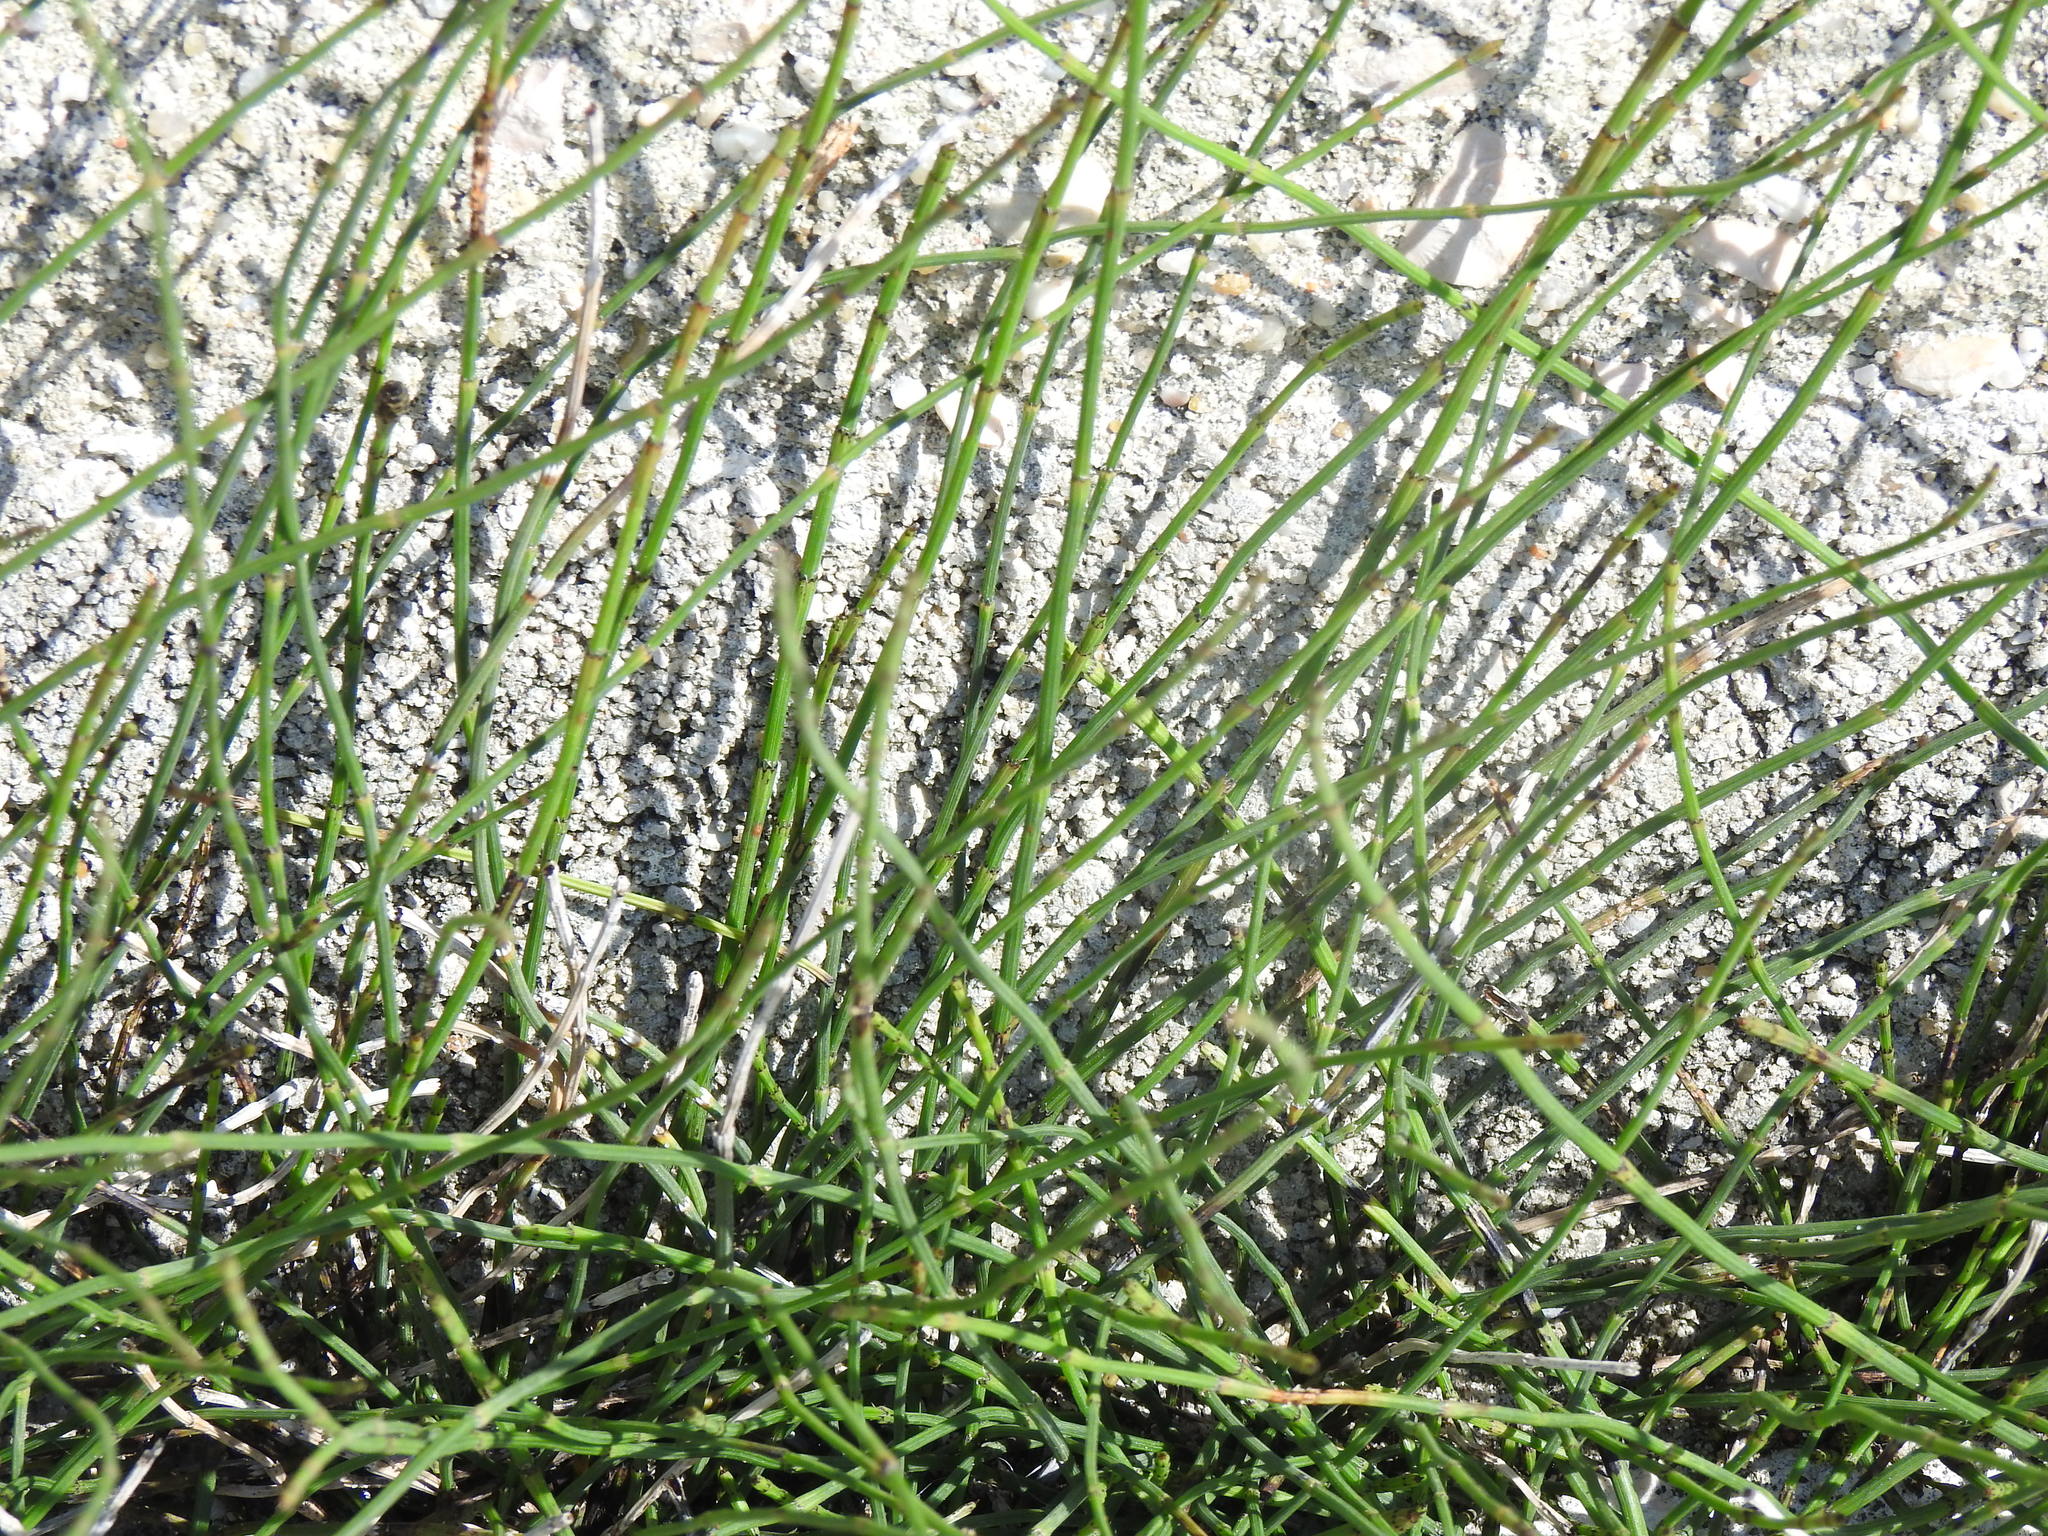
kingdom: Plantae
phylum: Tracheophyta
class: Polypodiopsida
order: Equisetales
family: Equisetaceae
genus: Equisetum
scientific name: Equisetum ramosissimum
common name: Branched horsetail
